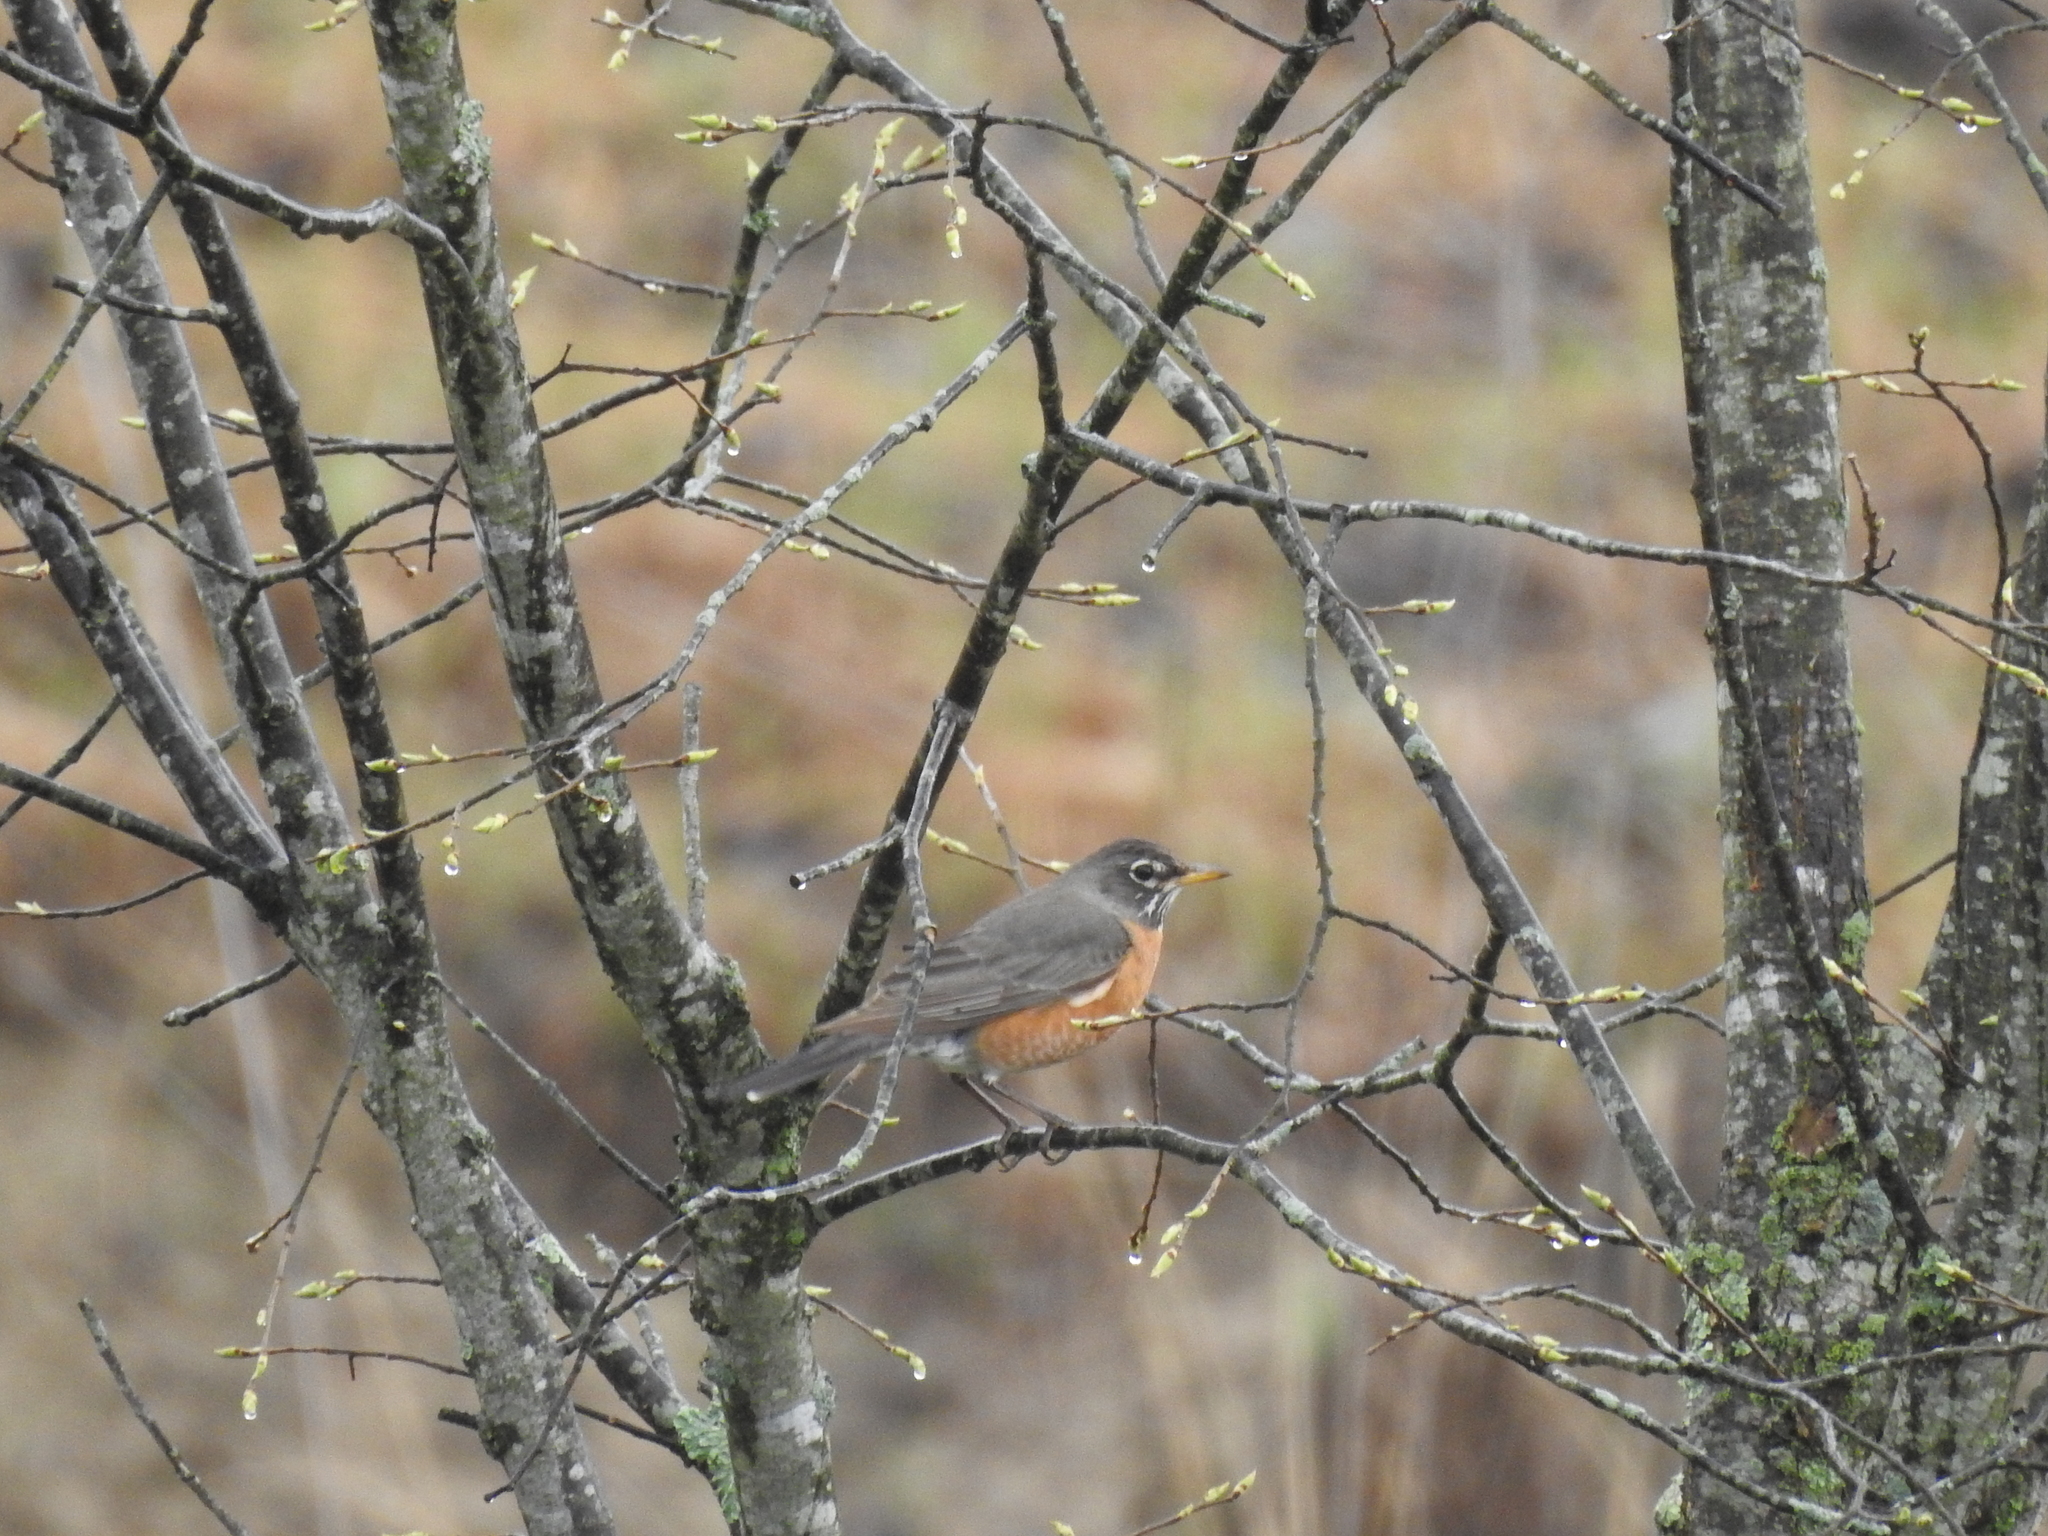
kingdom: Animalia
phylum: Chordata
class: Aves
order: Passeriformes
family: Turdidae
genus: Turdus
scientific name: Turdus migratorius
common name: American robin
